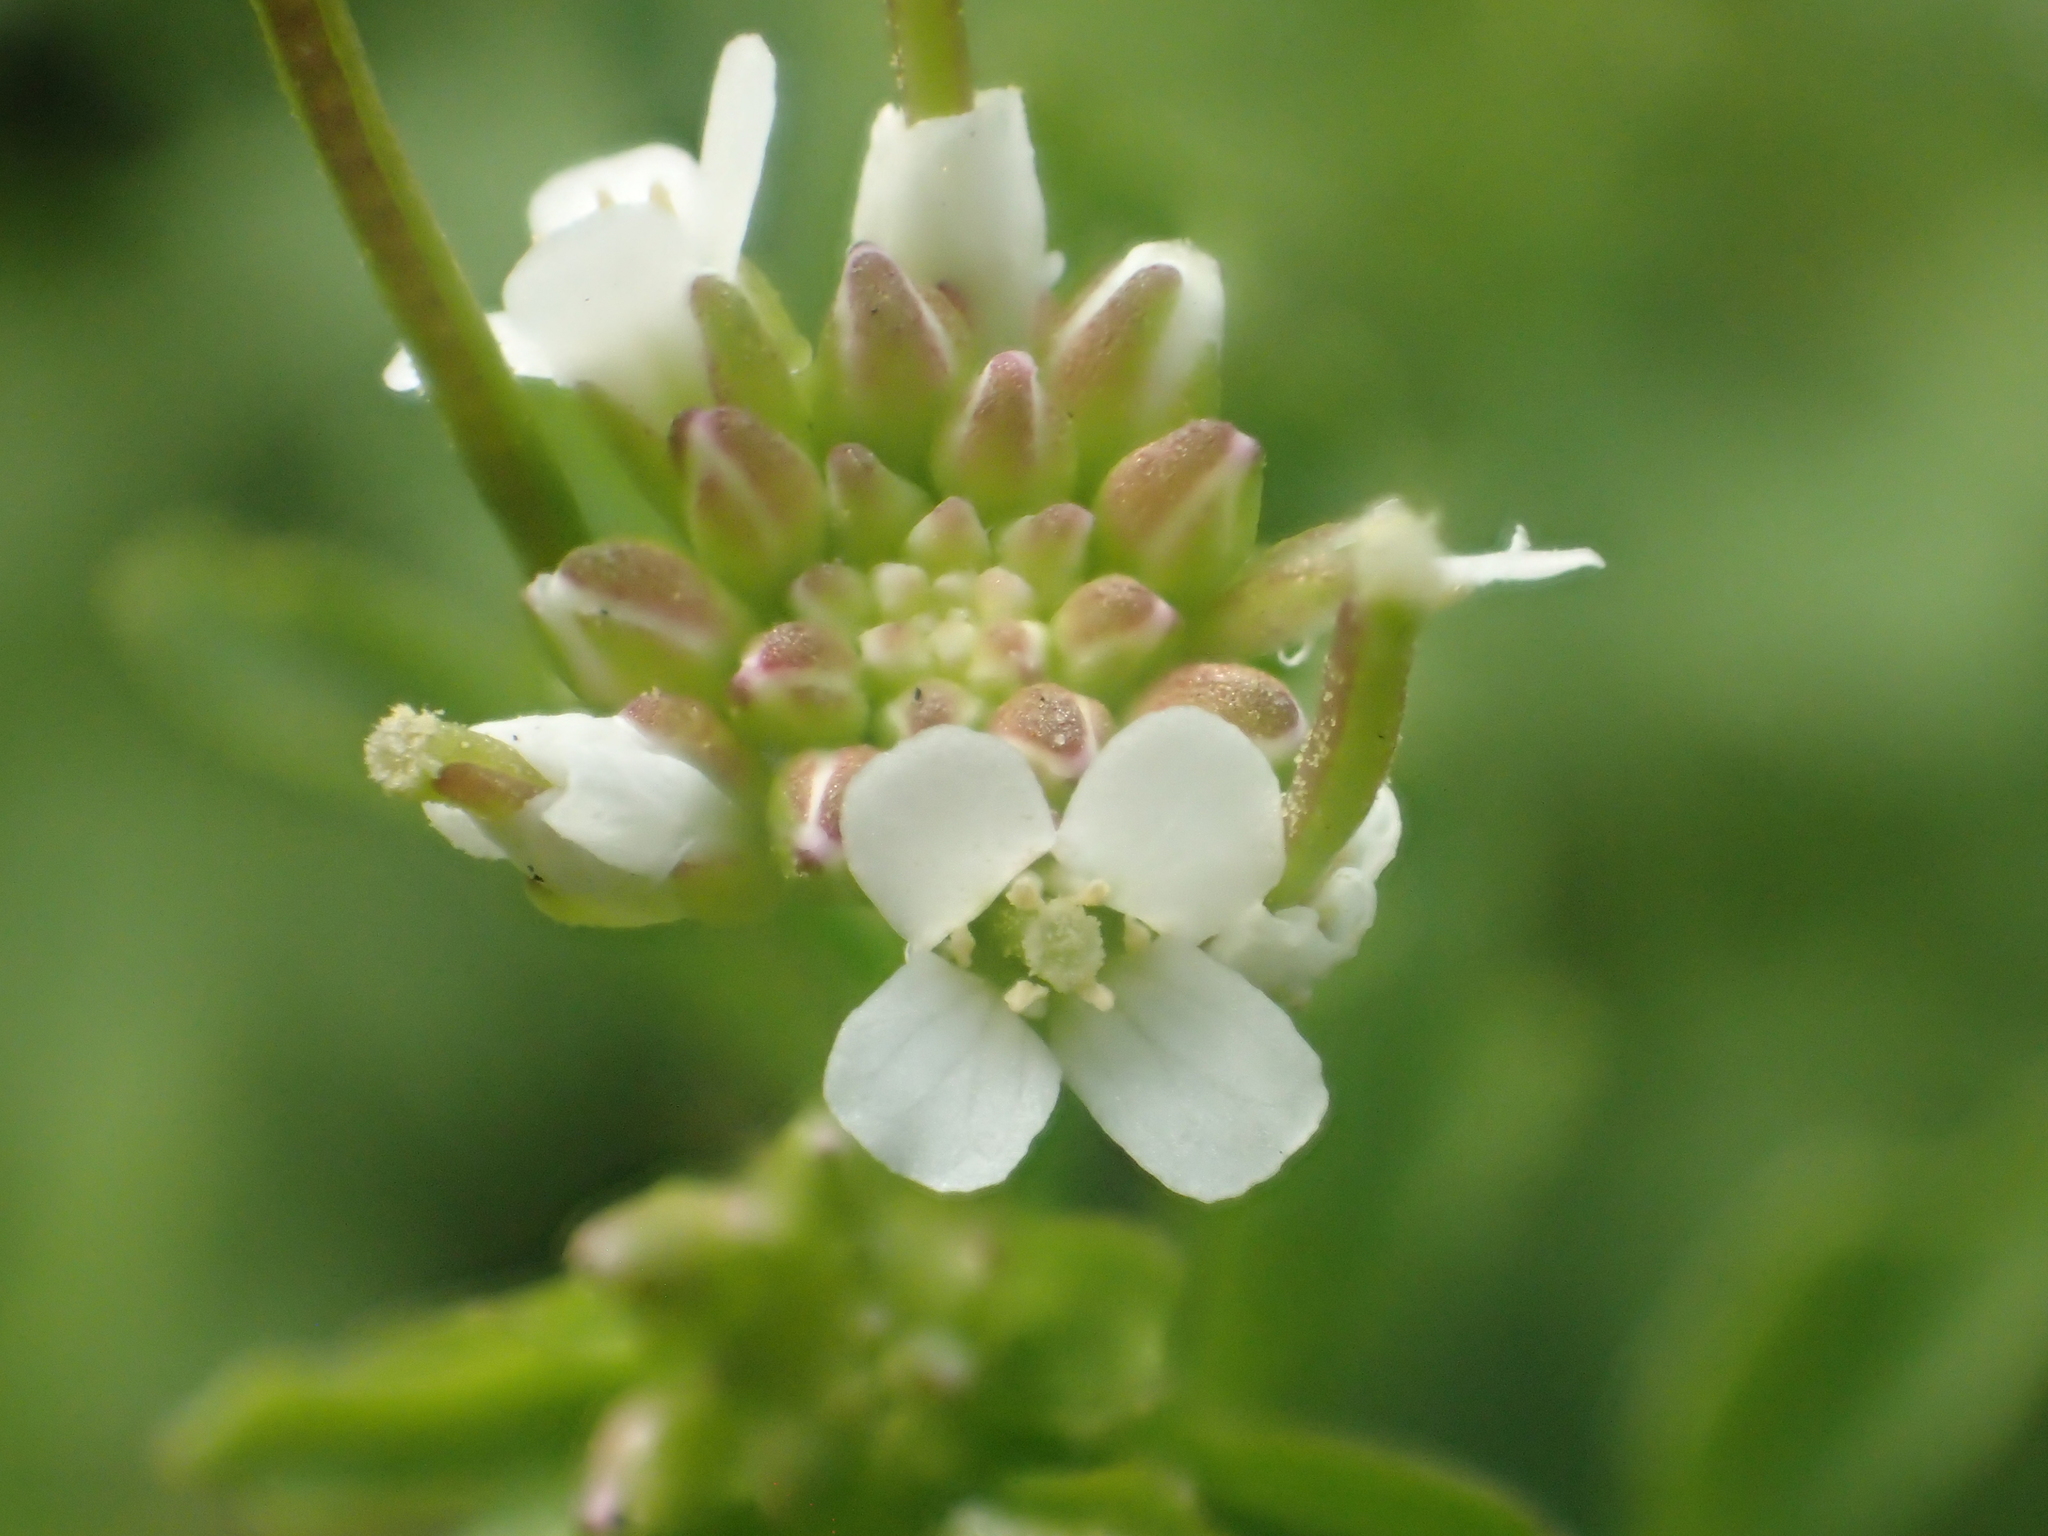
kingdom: Plantae
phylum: Tracheophyta
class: Magnoliopsida
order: Brassicales
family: Brassicaceae
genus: Cardamine
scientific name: Cardamine flexuosa
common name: Woodland bittercress
